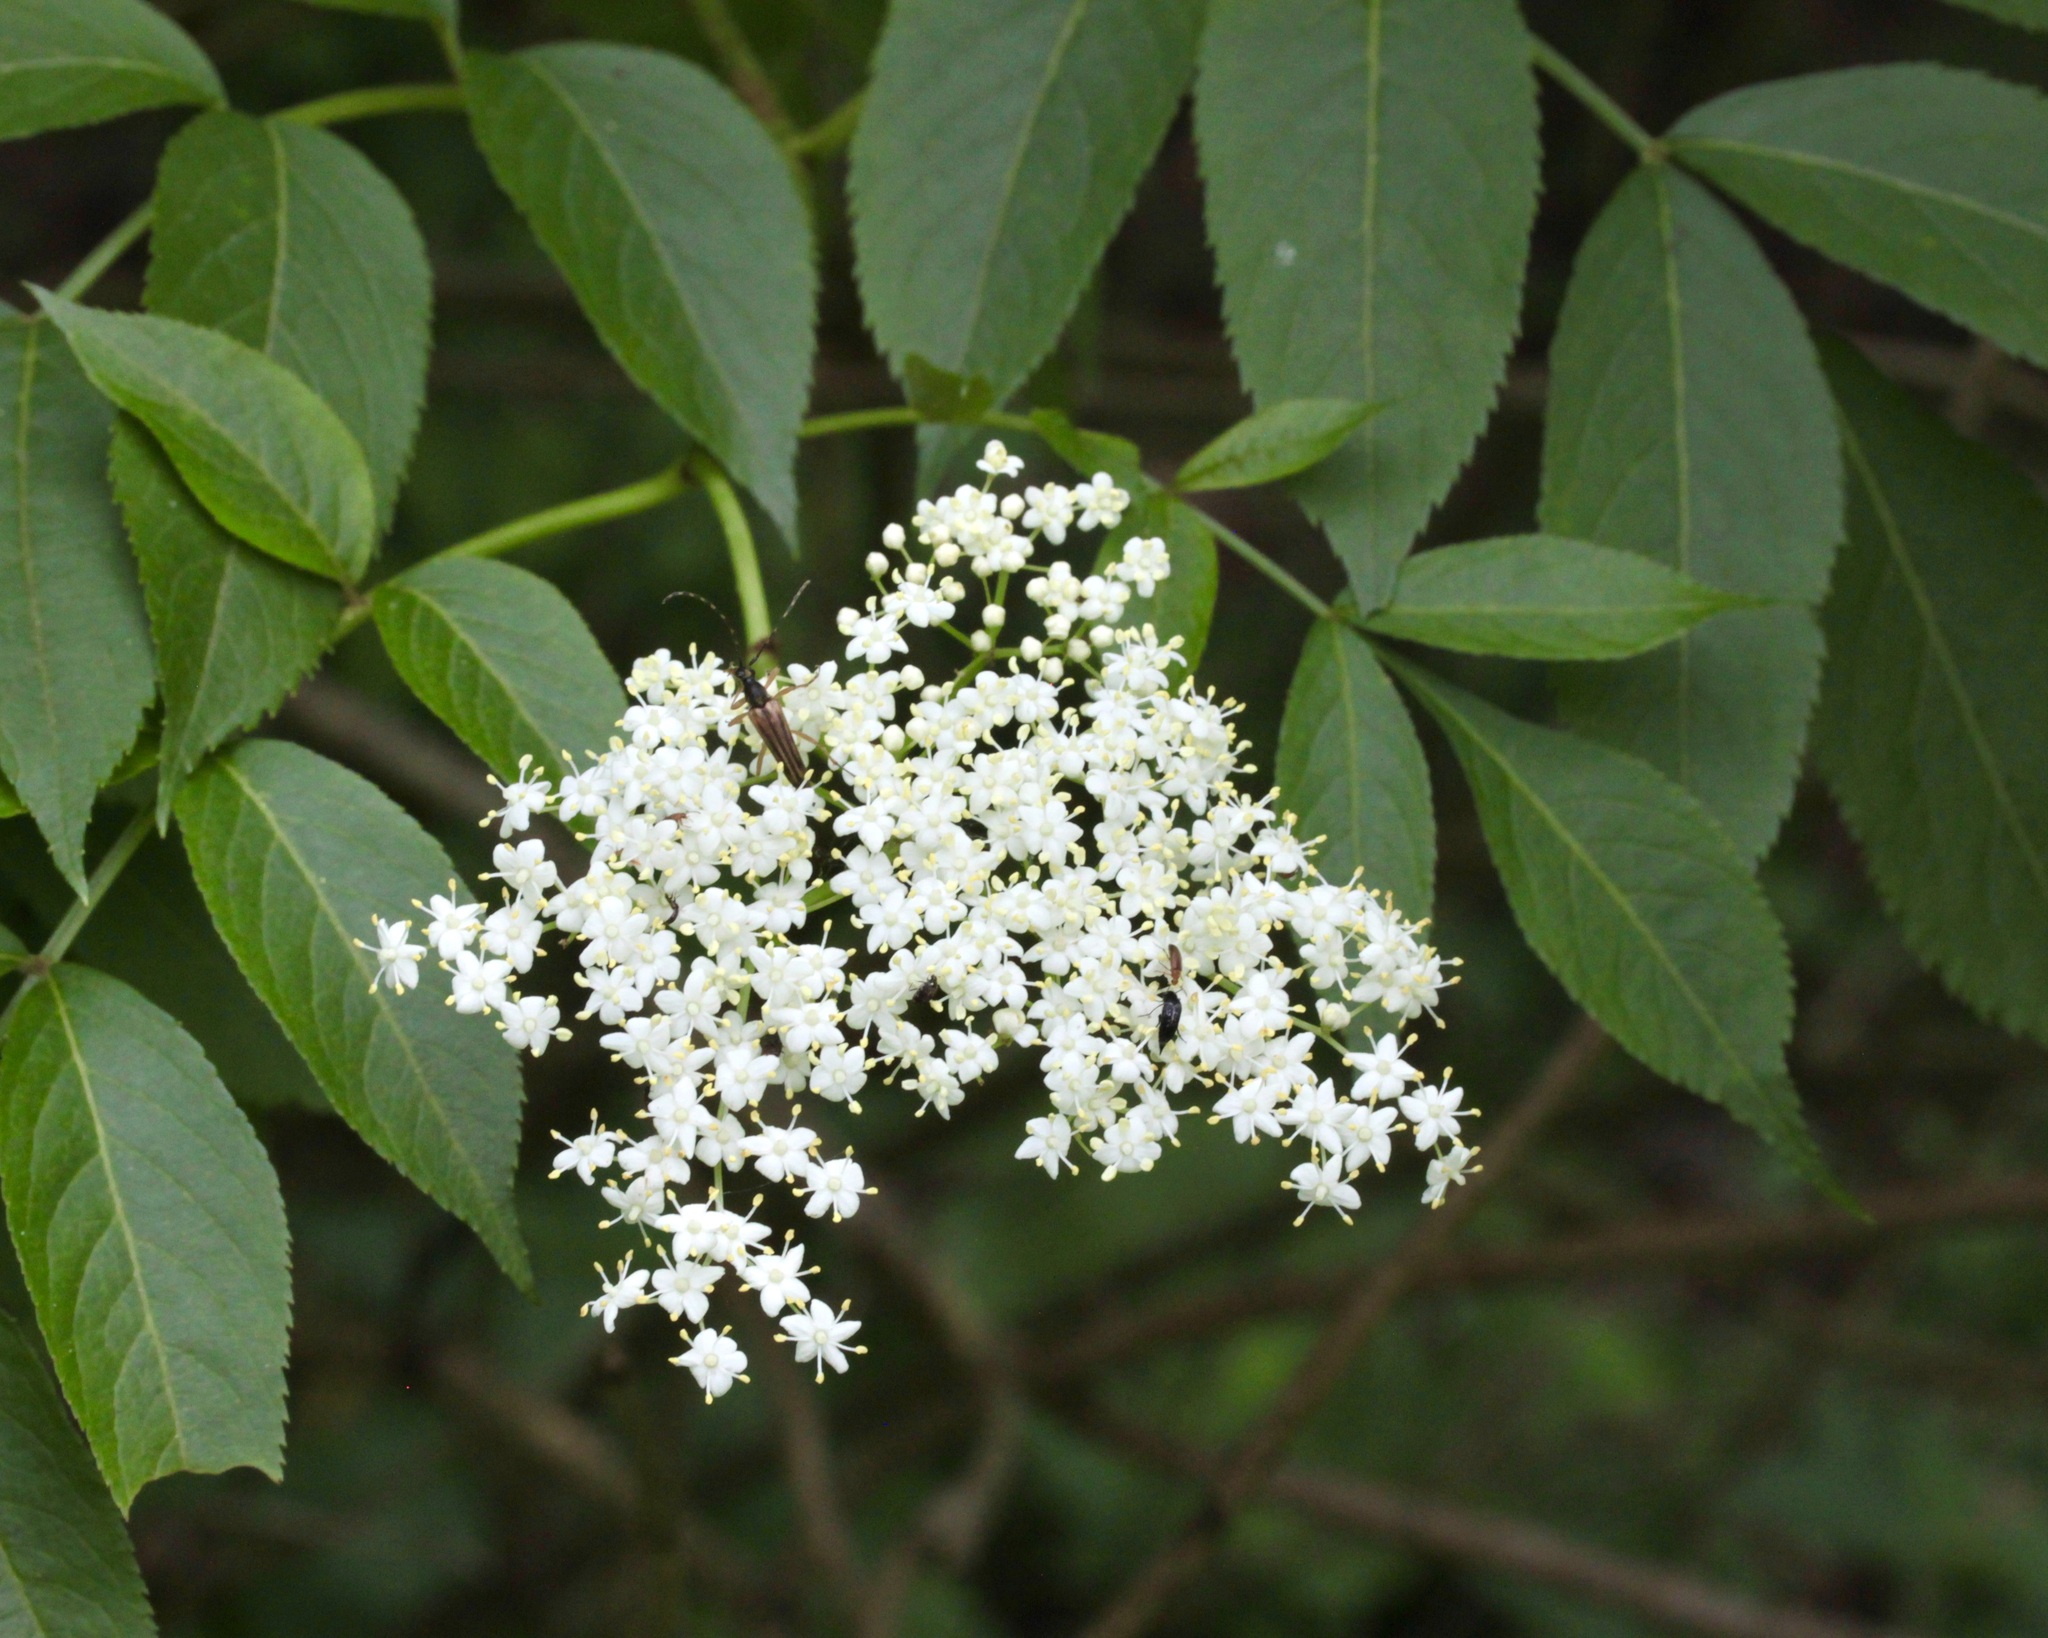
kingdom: Plantae
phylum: Tracheophyta
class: Magnoliopsida
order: Dipsacales
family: Viburnaceae
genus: Sambucus
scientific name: Sambucus canadensis
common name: American elder
